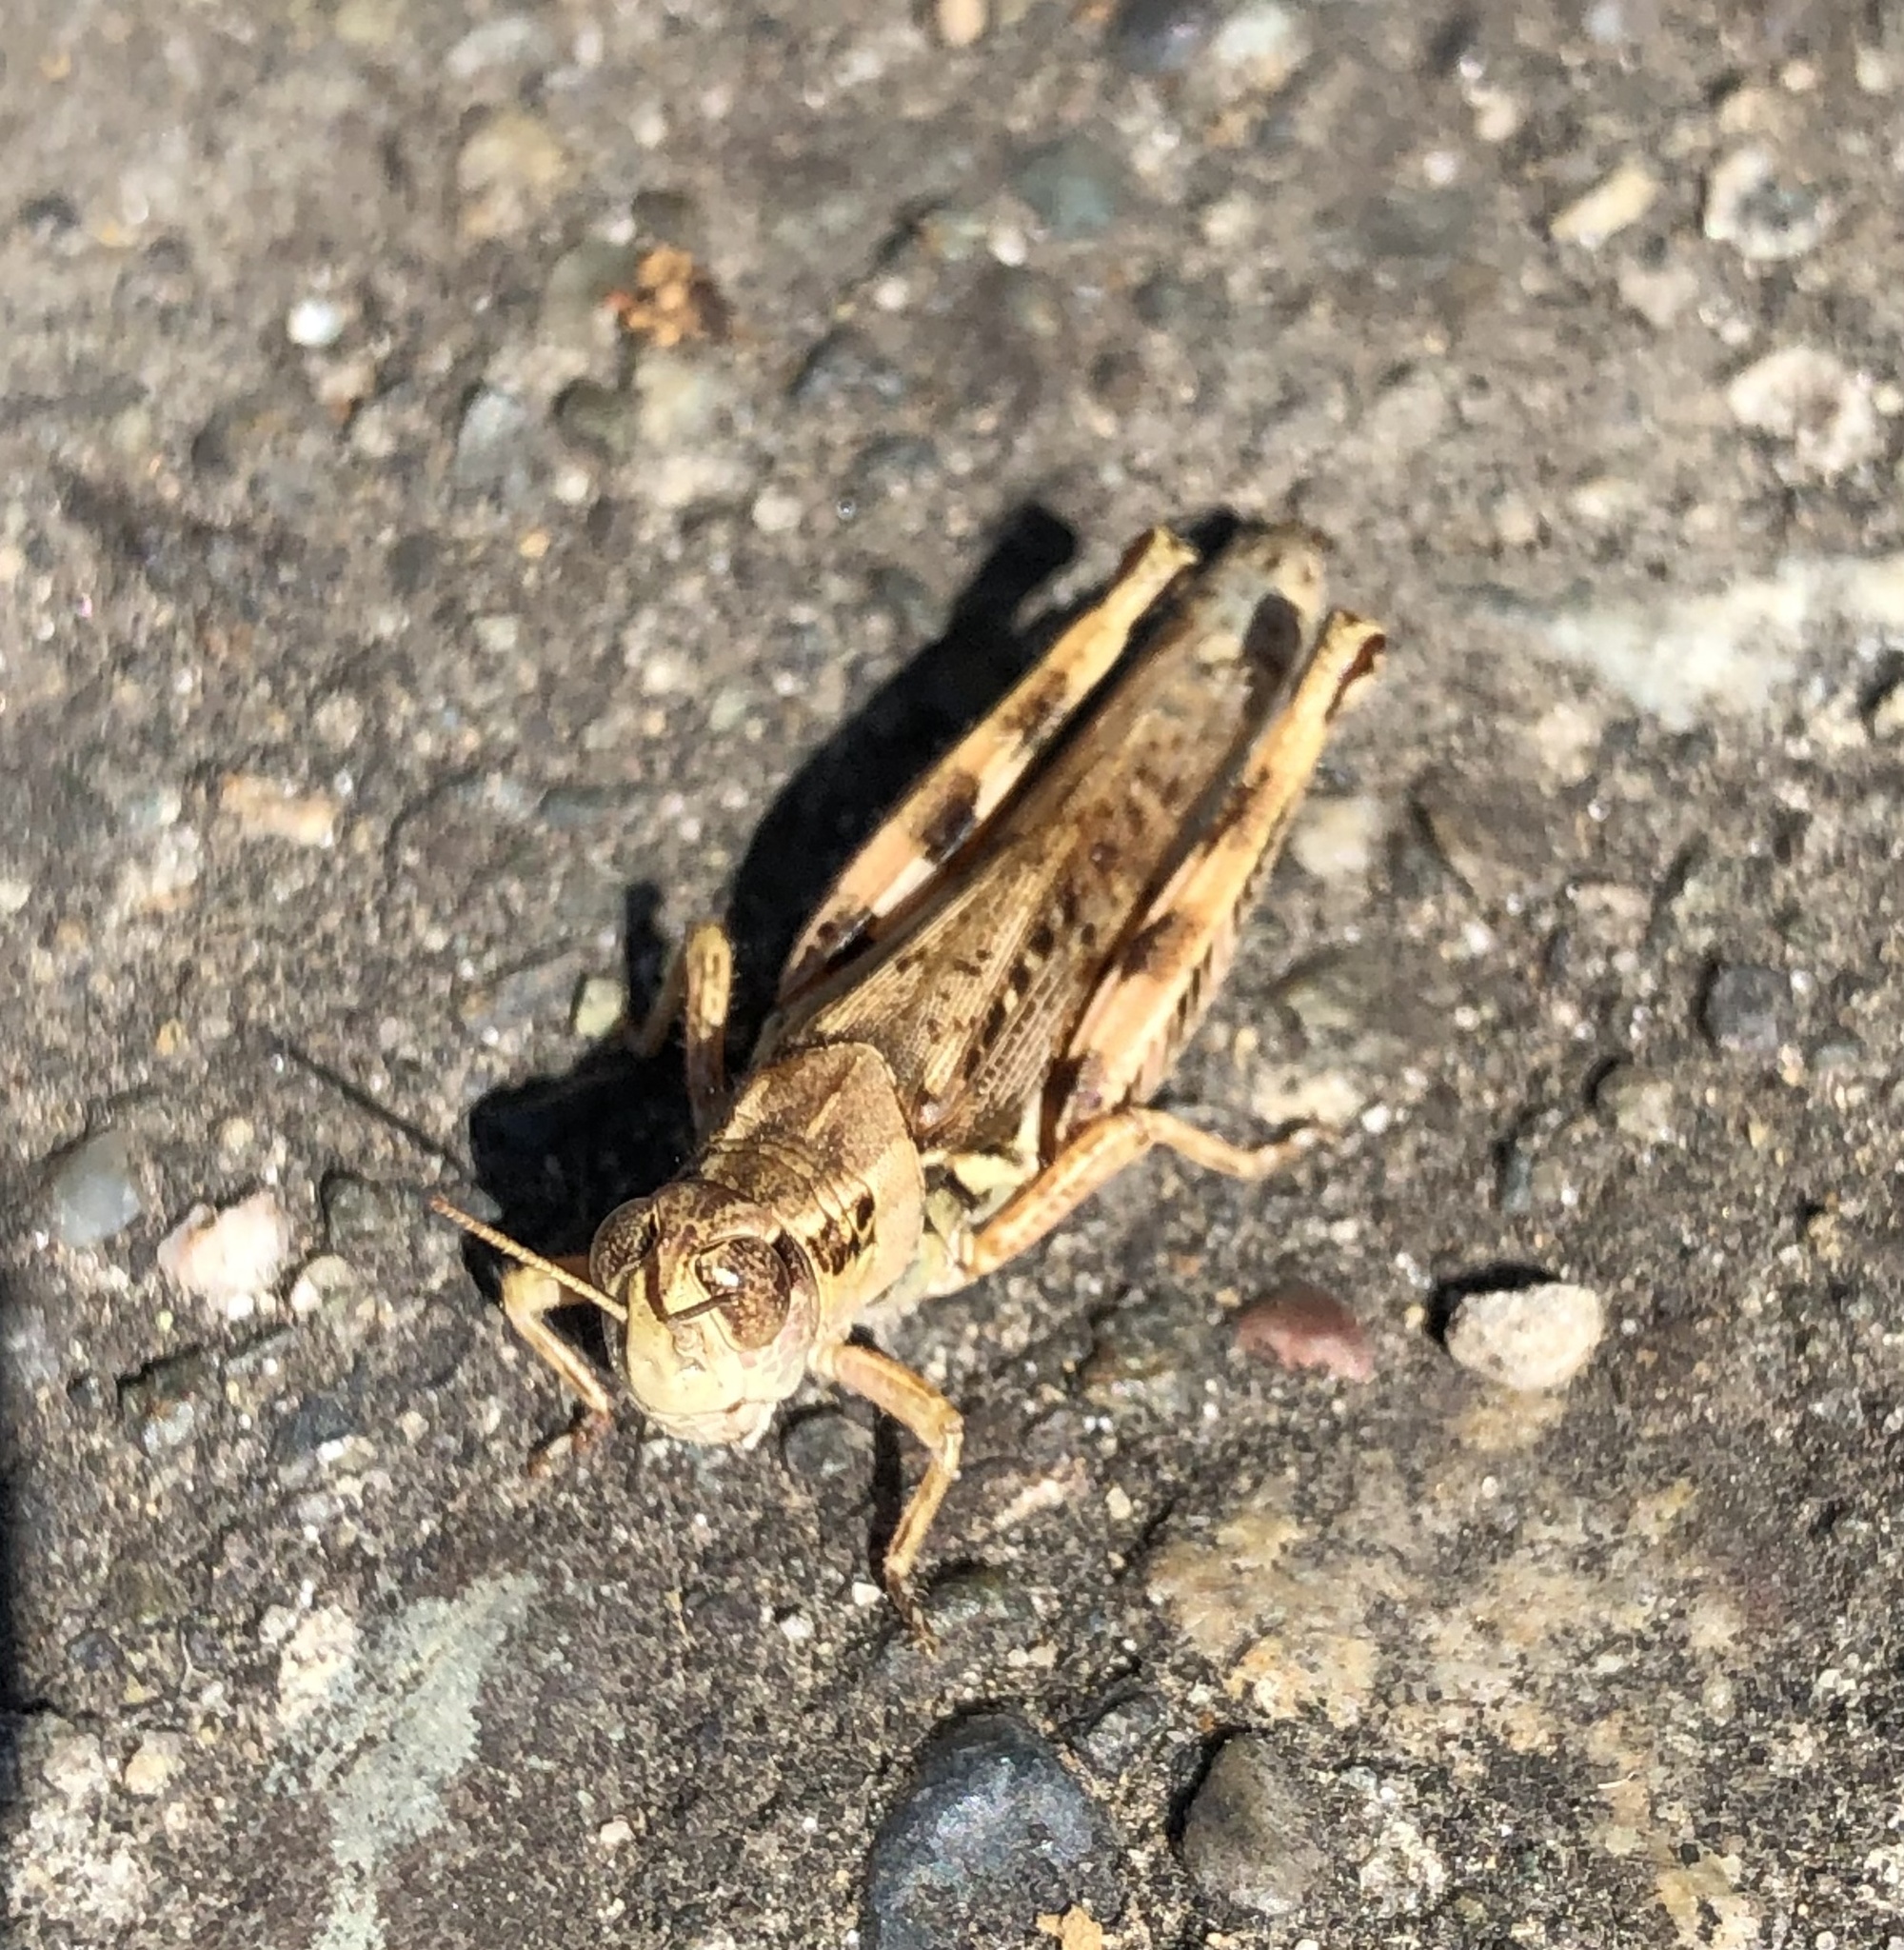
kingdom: Animalia
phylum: Arthropoda
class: Insecta
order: Orthoptera
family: Acrididae
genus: Melanoplus
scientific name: Melanoplus sanguinipes
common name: Migratory grasshopper
